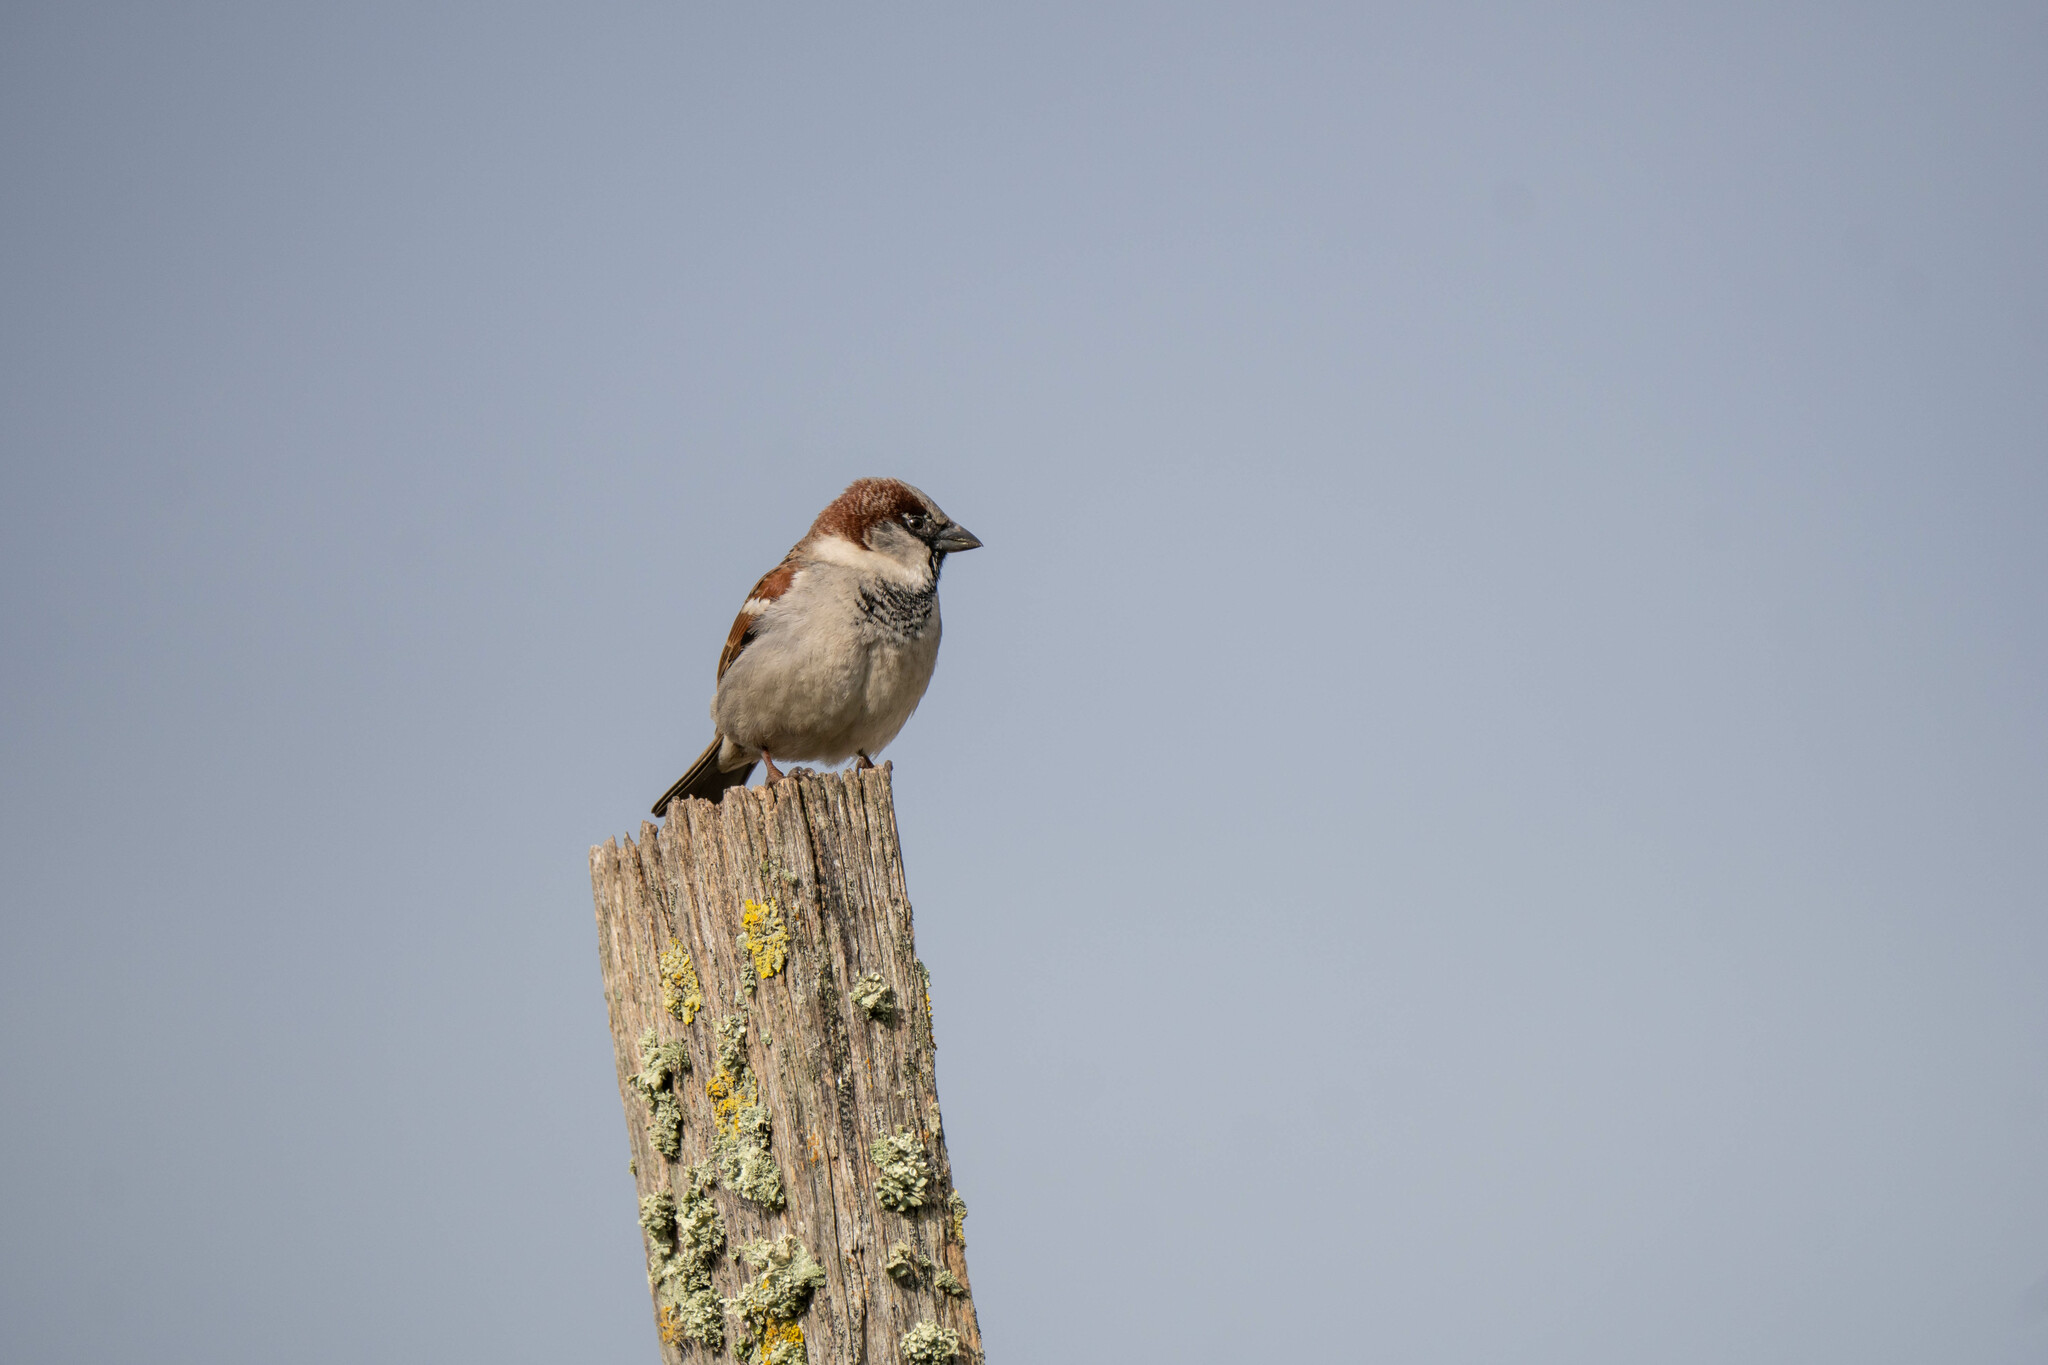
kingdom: Animalia
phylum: Chordata
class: Aves
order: Passeriformes
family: Passeridae
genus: Passer
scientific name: Passer domesticus
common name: House sparrow
